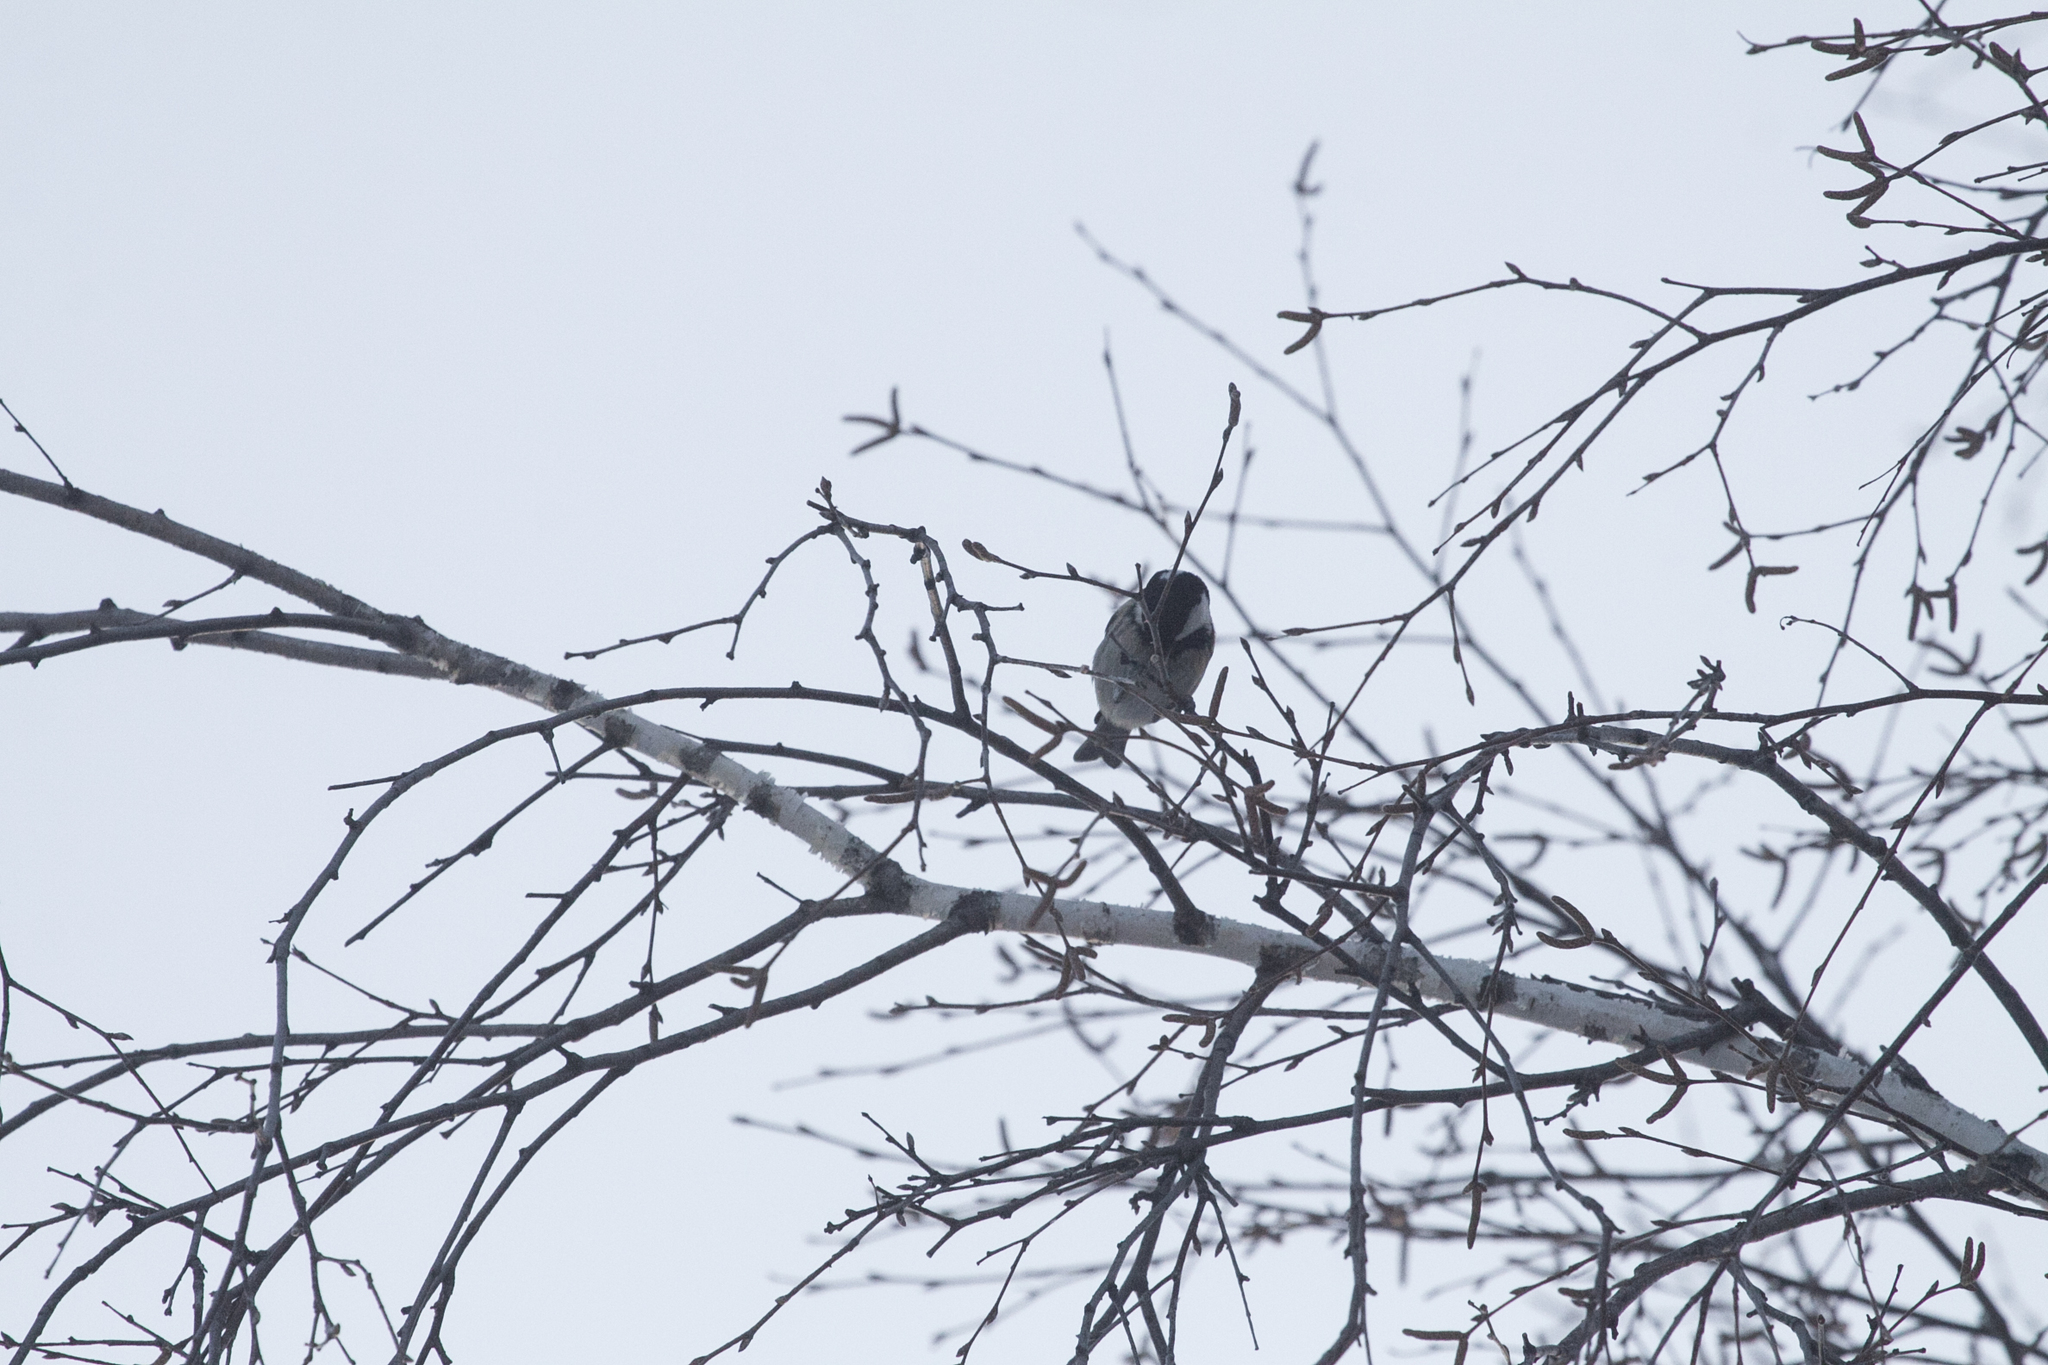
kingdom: Animalia
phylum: Chordata
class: Aves
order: Passeriformes
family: Paridae
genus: Periparus
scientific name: Periparus ater
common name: Coal tit
